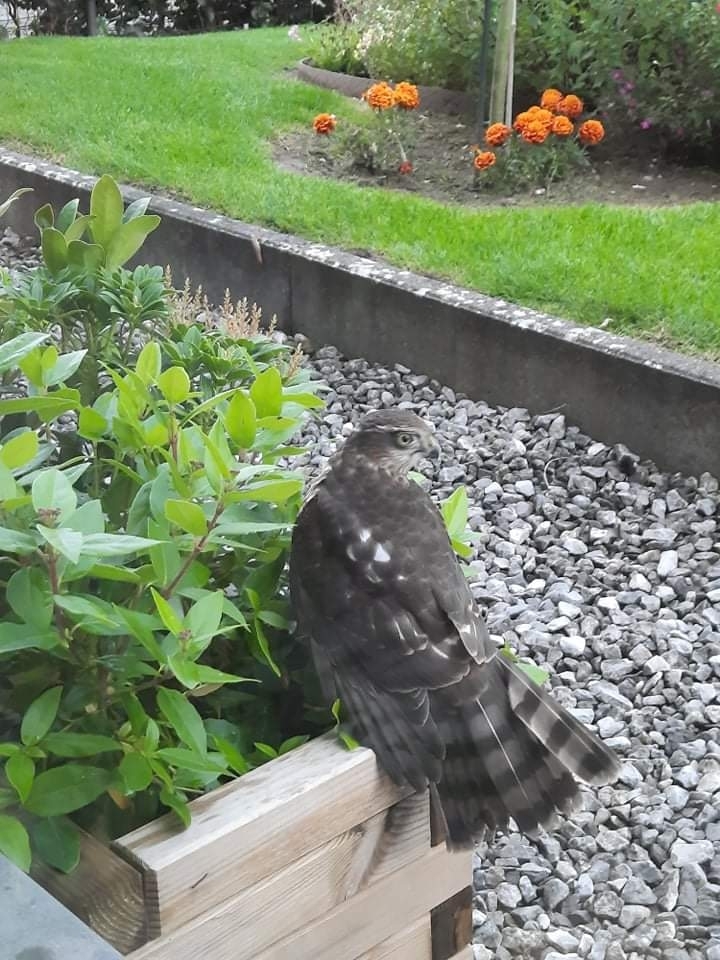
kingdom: Animalia
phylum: Chordata
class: Aves
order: Accipitriformes
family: Accipitridae
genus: Accipiter
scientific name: Accipiter nisus
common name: Eurasian sparrowhawk
